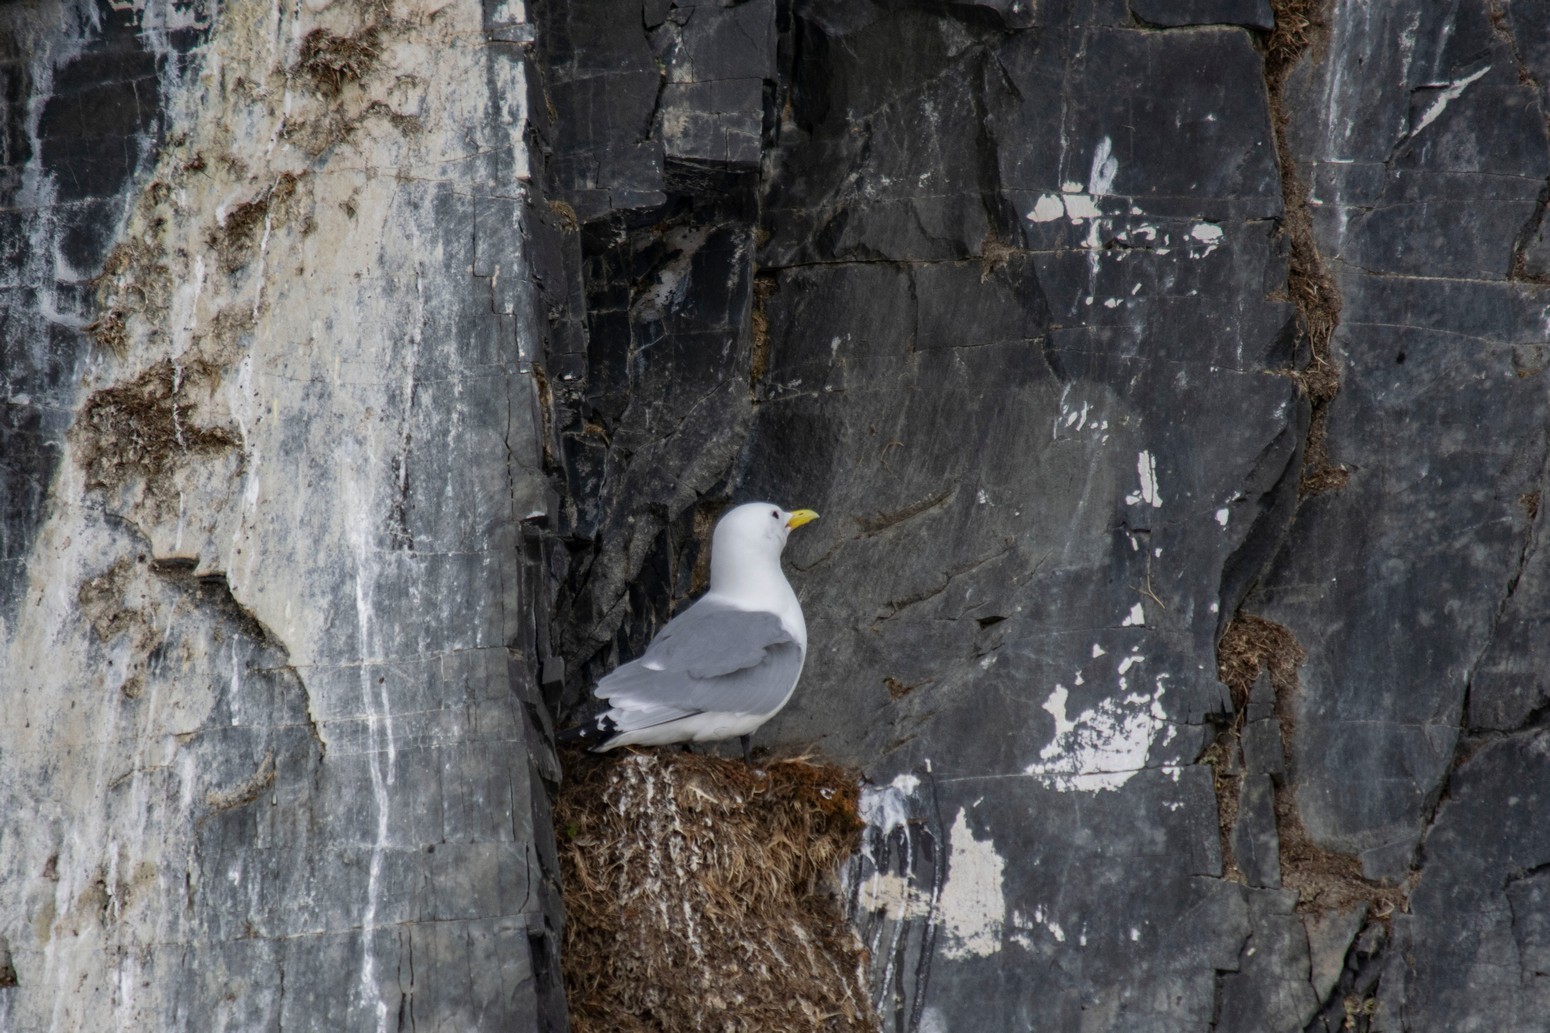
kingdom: Animalia
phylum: Chordata
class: Aves
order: Charadriiformes
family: Laridae
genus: Rissa
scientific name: Rissa tridactyla
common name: Black-legged kittiwake
